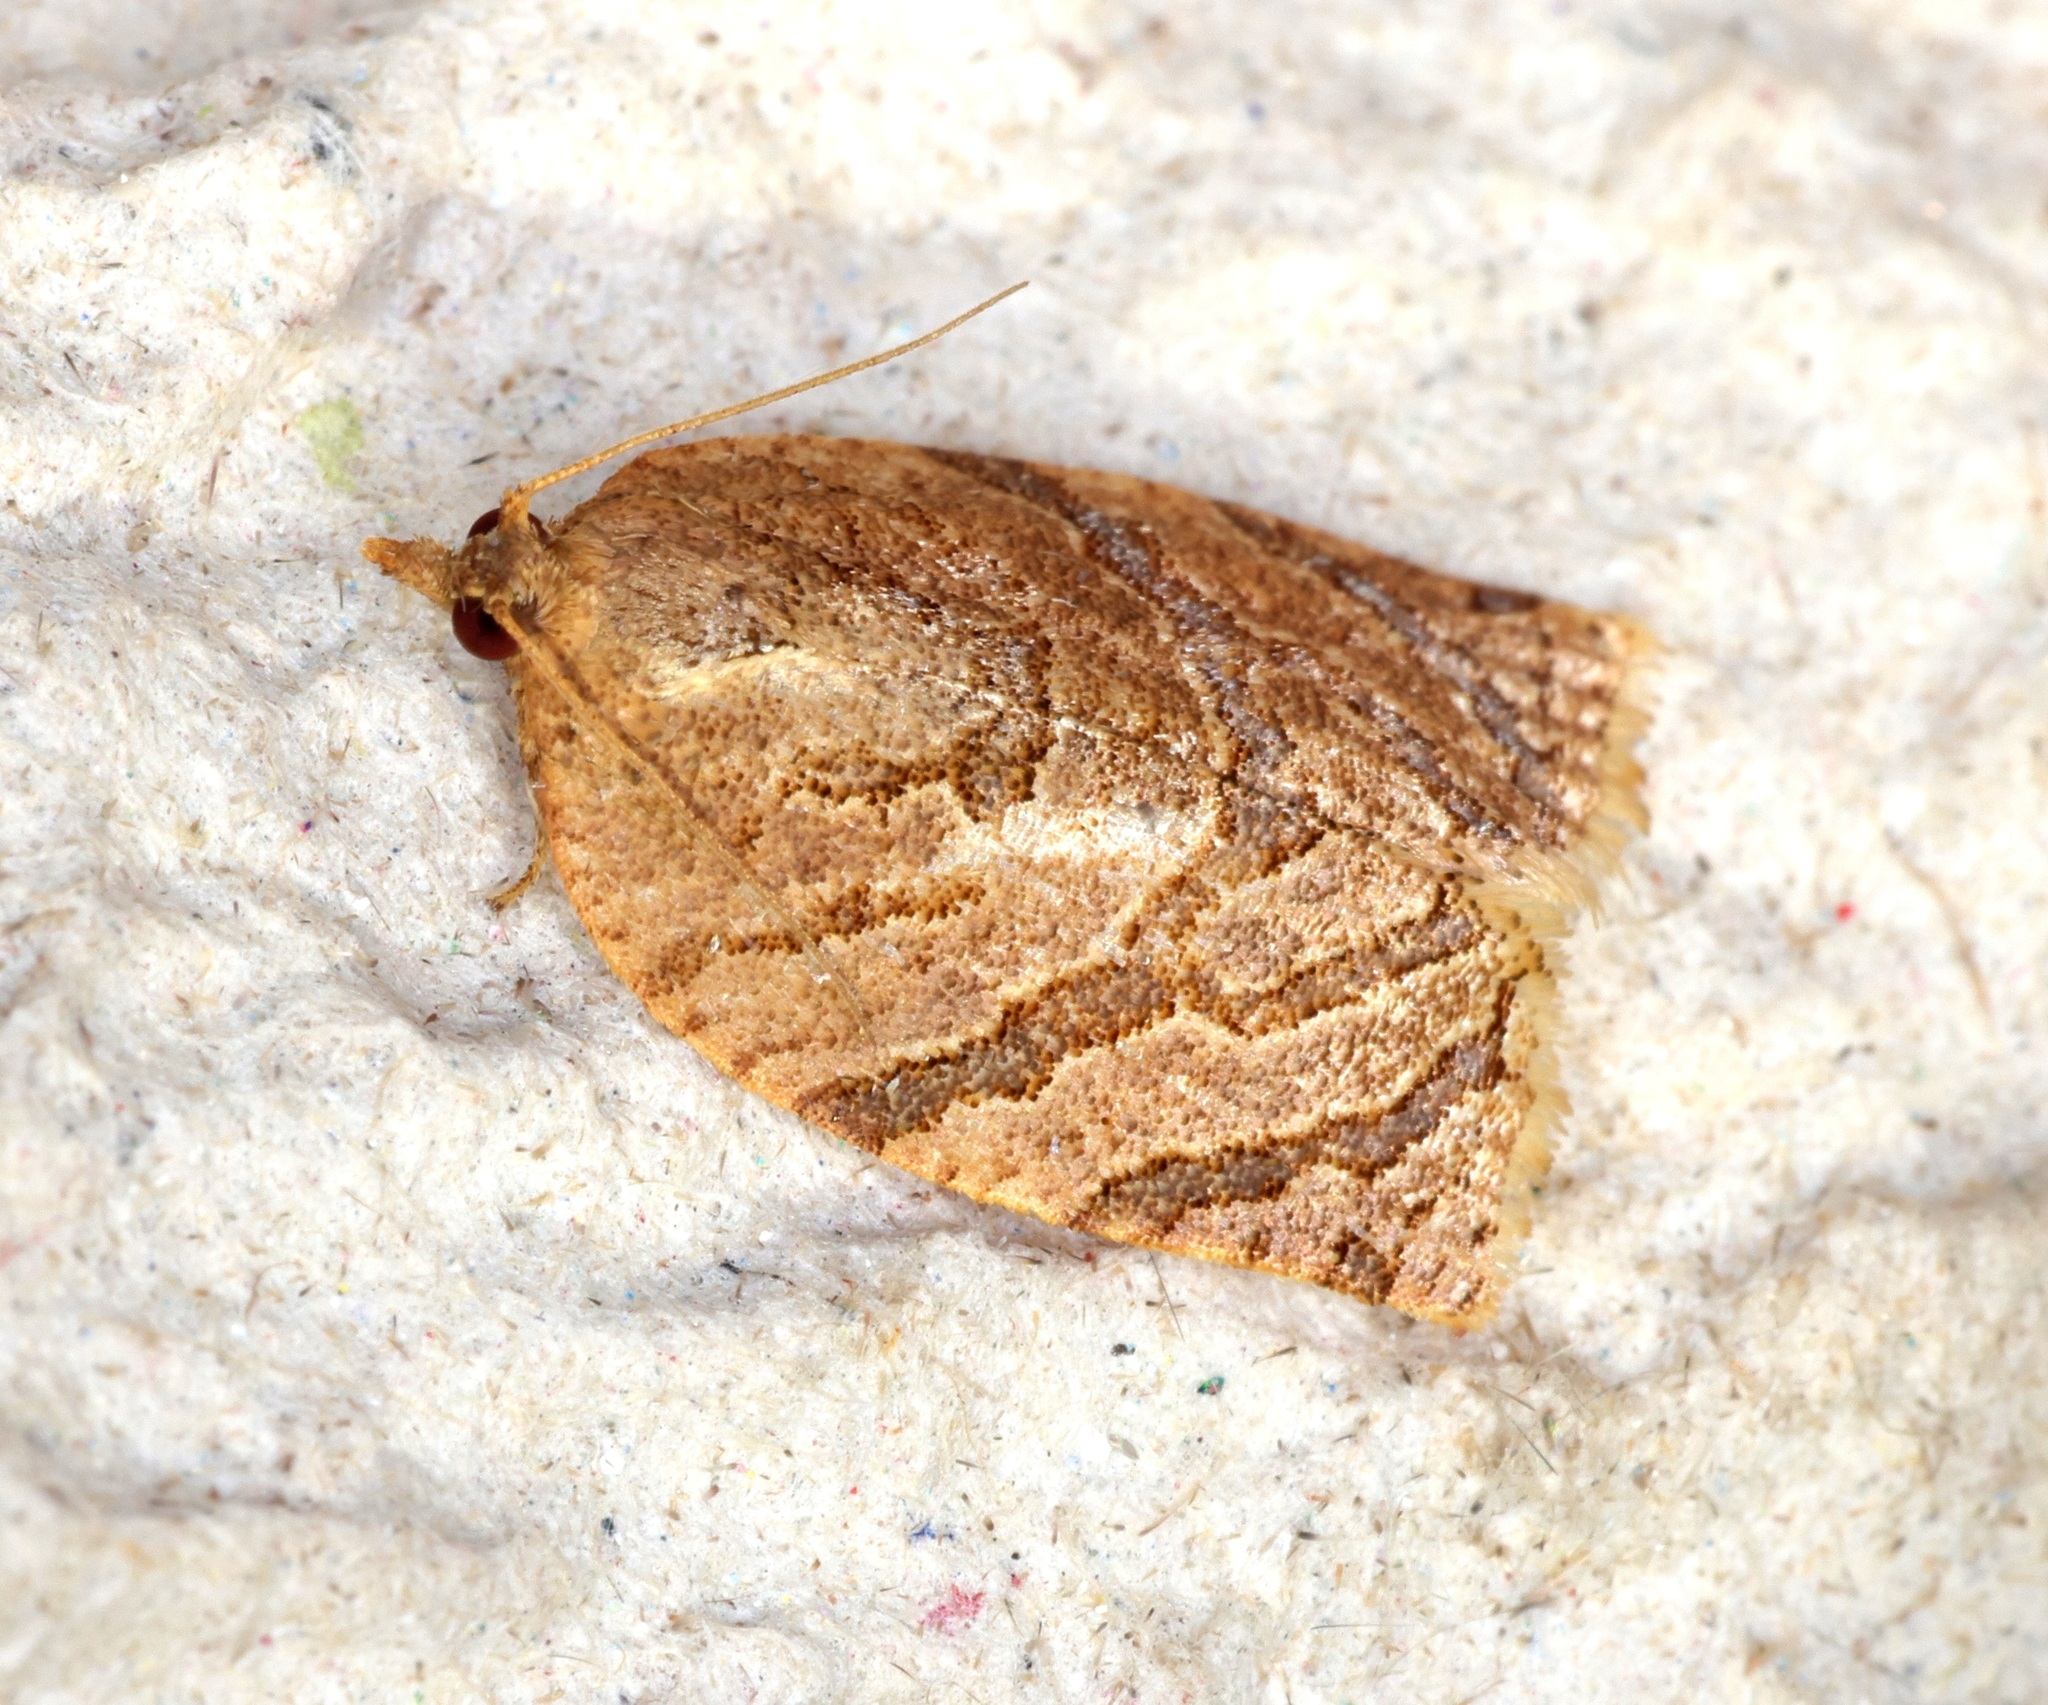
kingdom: Animalia
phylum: Arthropoda
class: Insecta
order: Lepidoptera
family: Tortricidae
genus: Adoxophyes
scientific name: Adoxophyes privatana
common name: Asian orchid tortrix
